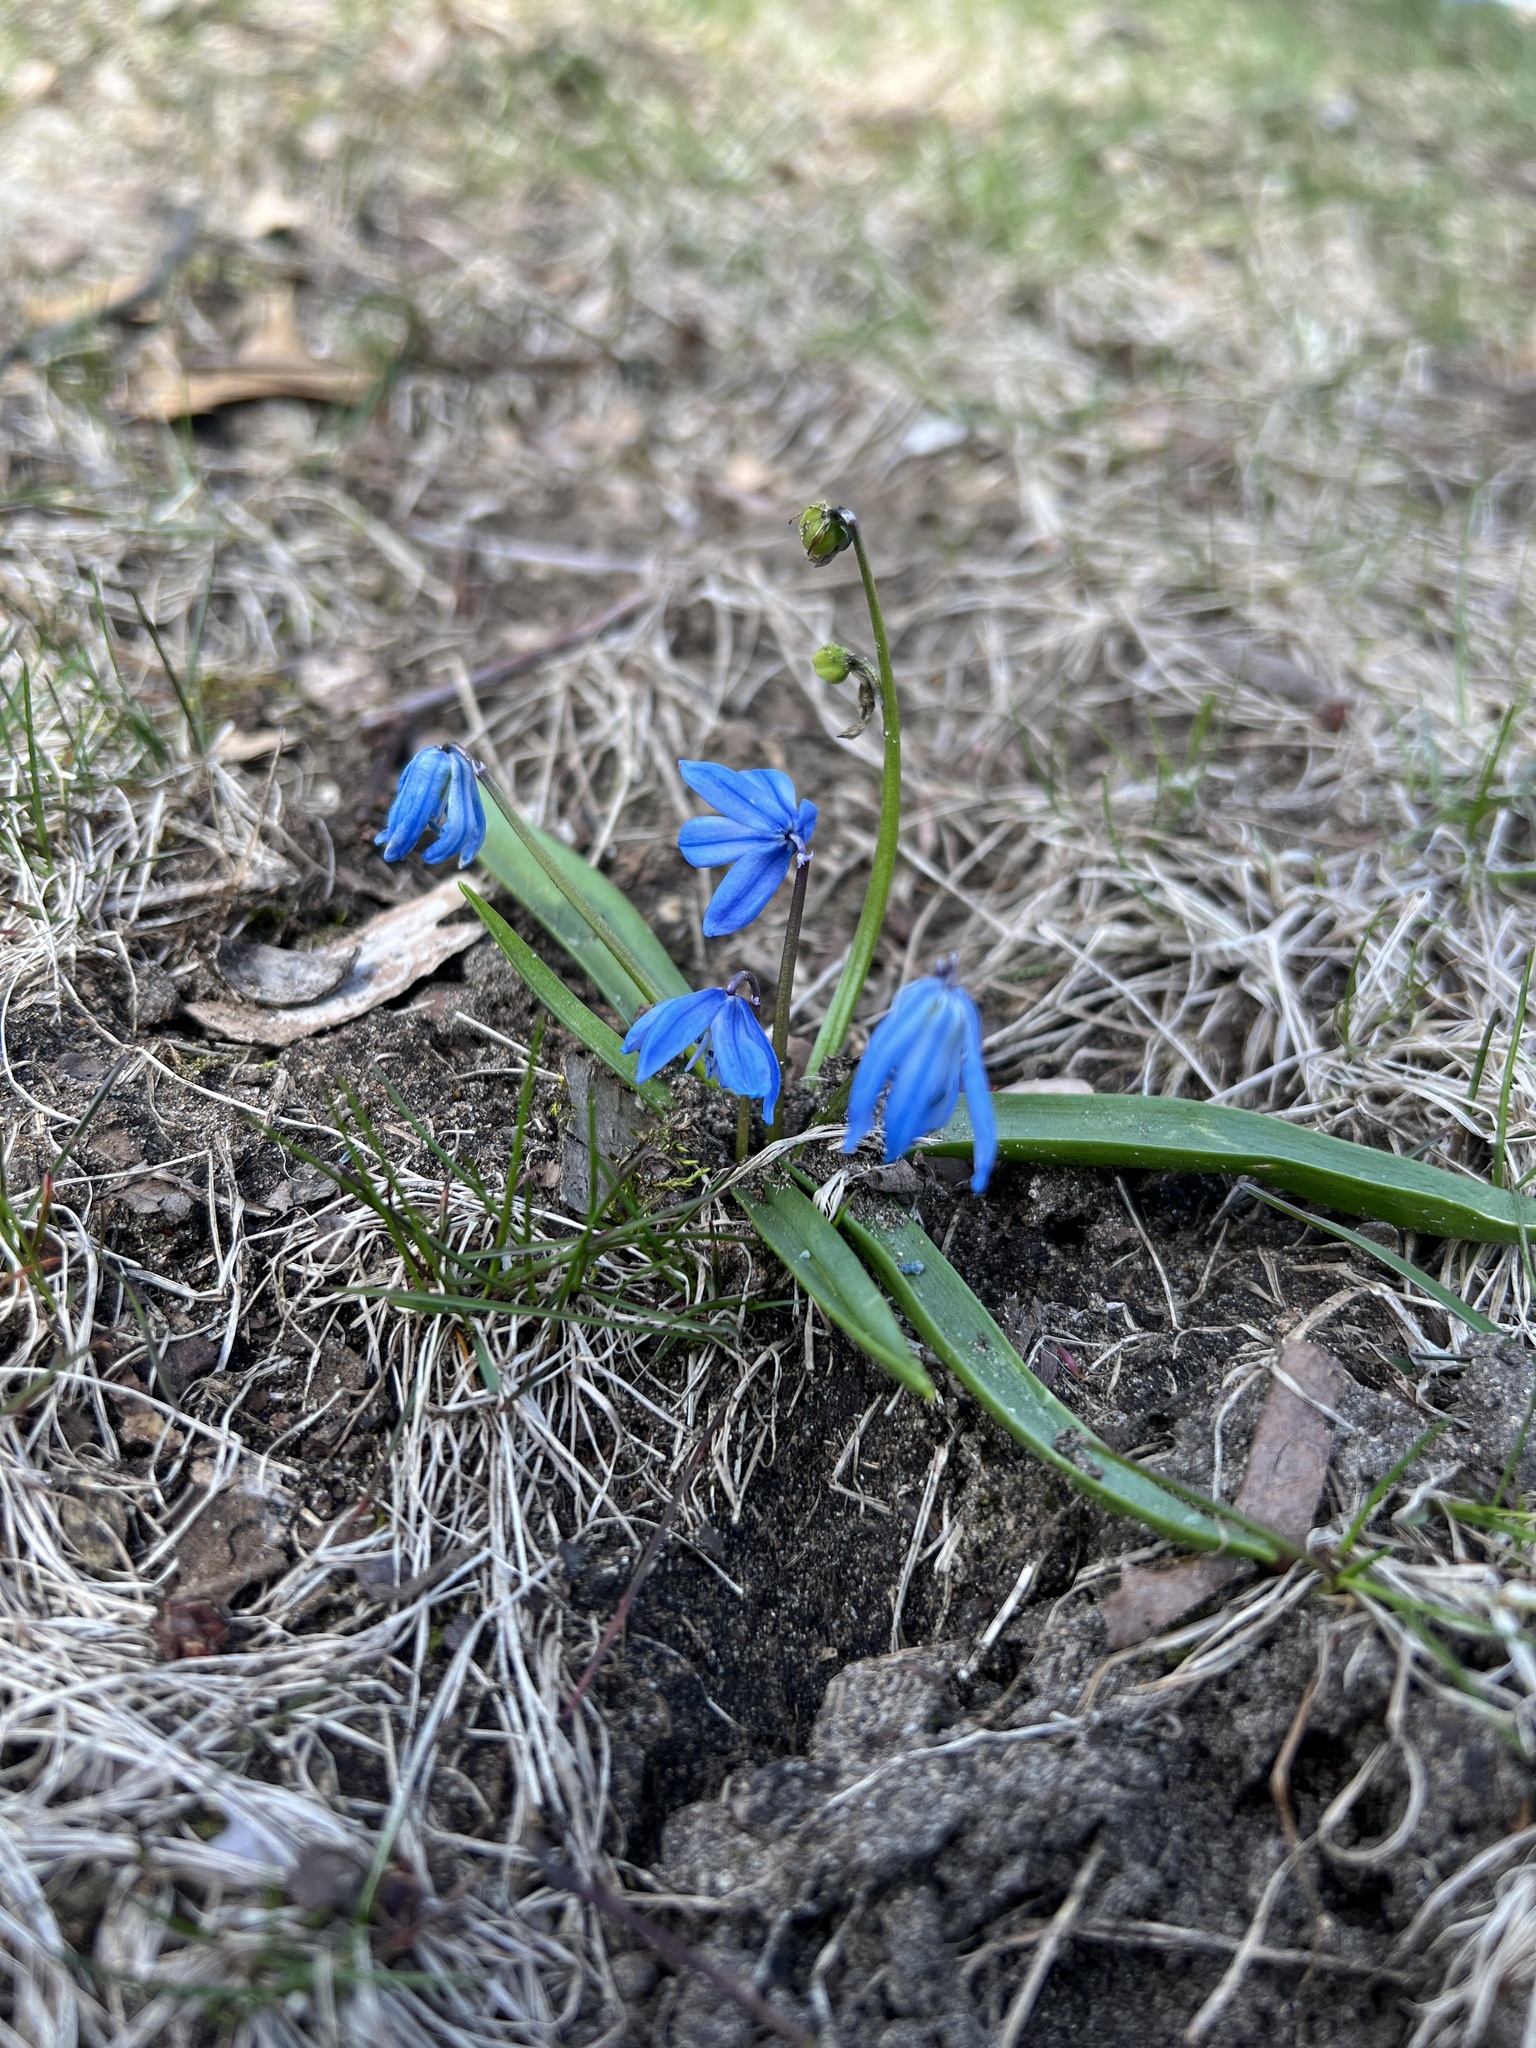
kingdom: Plantae
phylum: Tracheophyta
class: Liliopsida
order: Asparagales
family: Asparagaceae
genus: Scilla
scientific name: Scilla siberica
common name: Siberian squill
